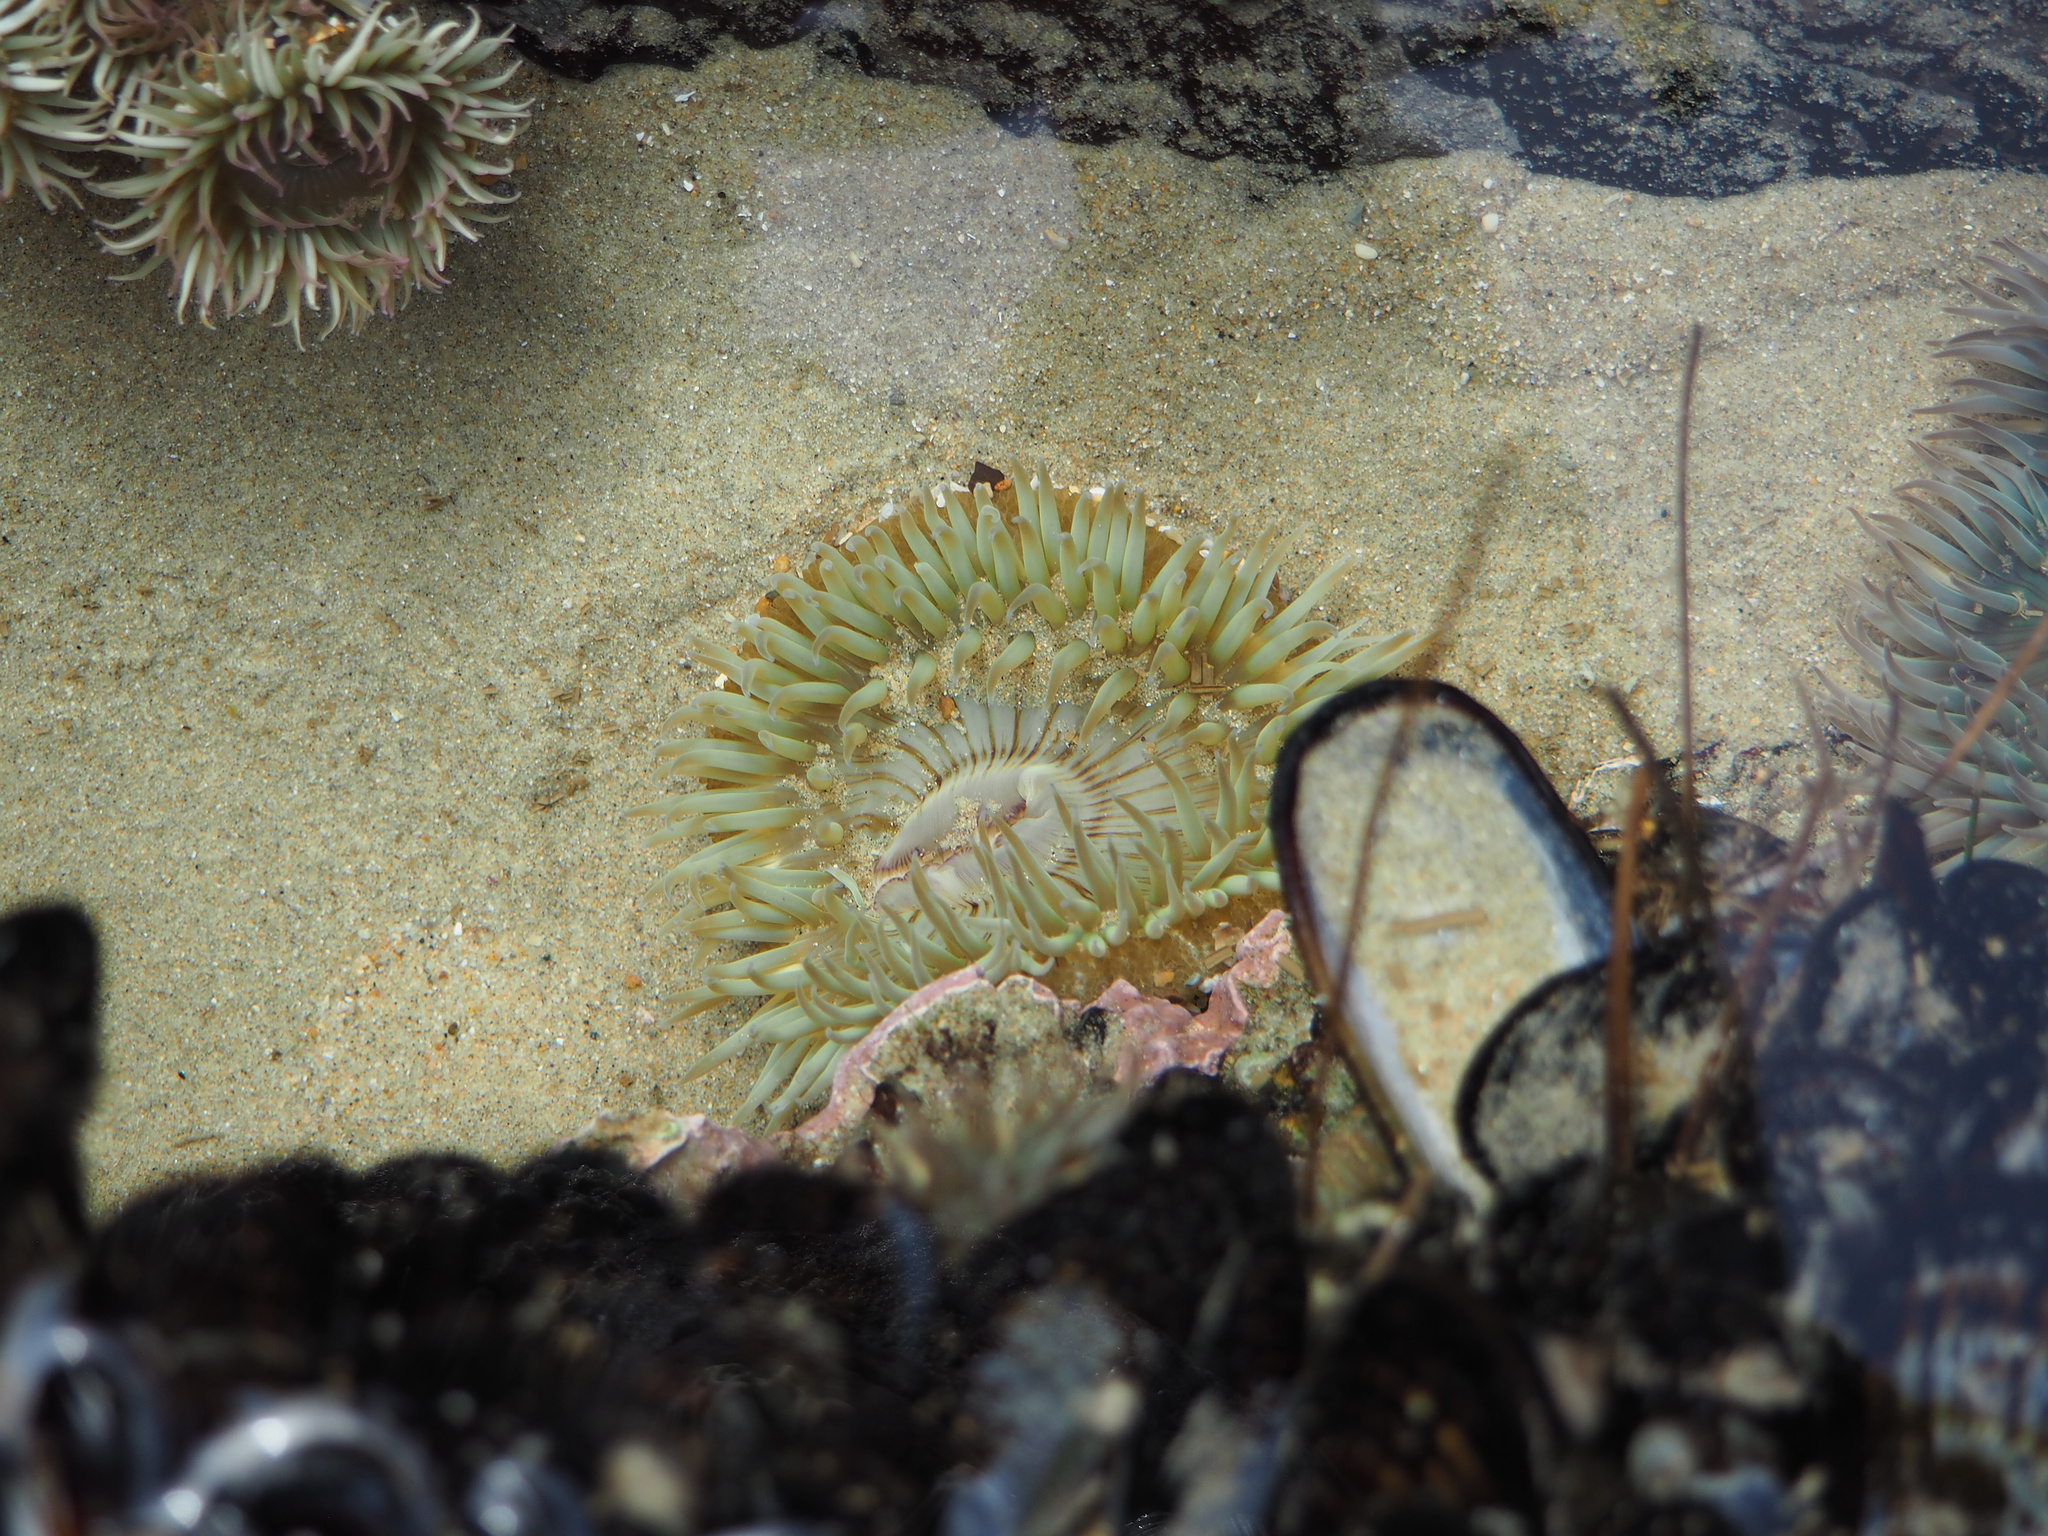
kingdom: Animalia
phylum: Cnidaria
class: Anthozoa
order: Actiniaria
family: Actiniidae
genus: Anthopleura
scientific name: Anthopleura sola
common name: Sun anemone
